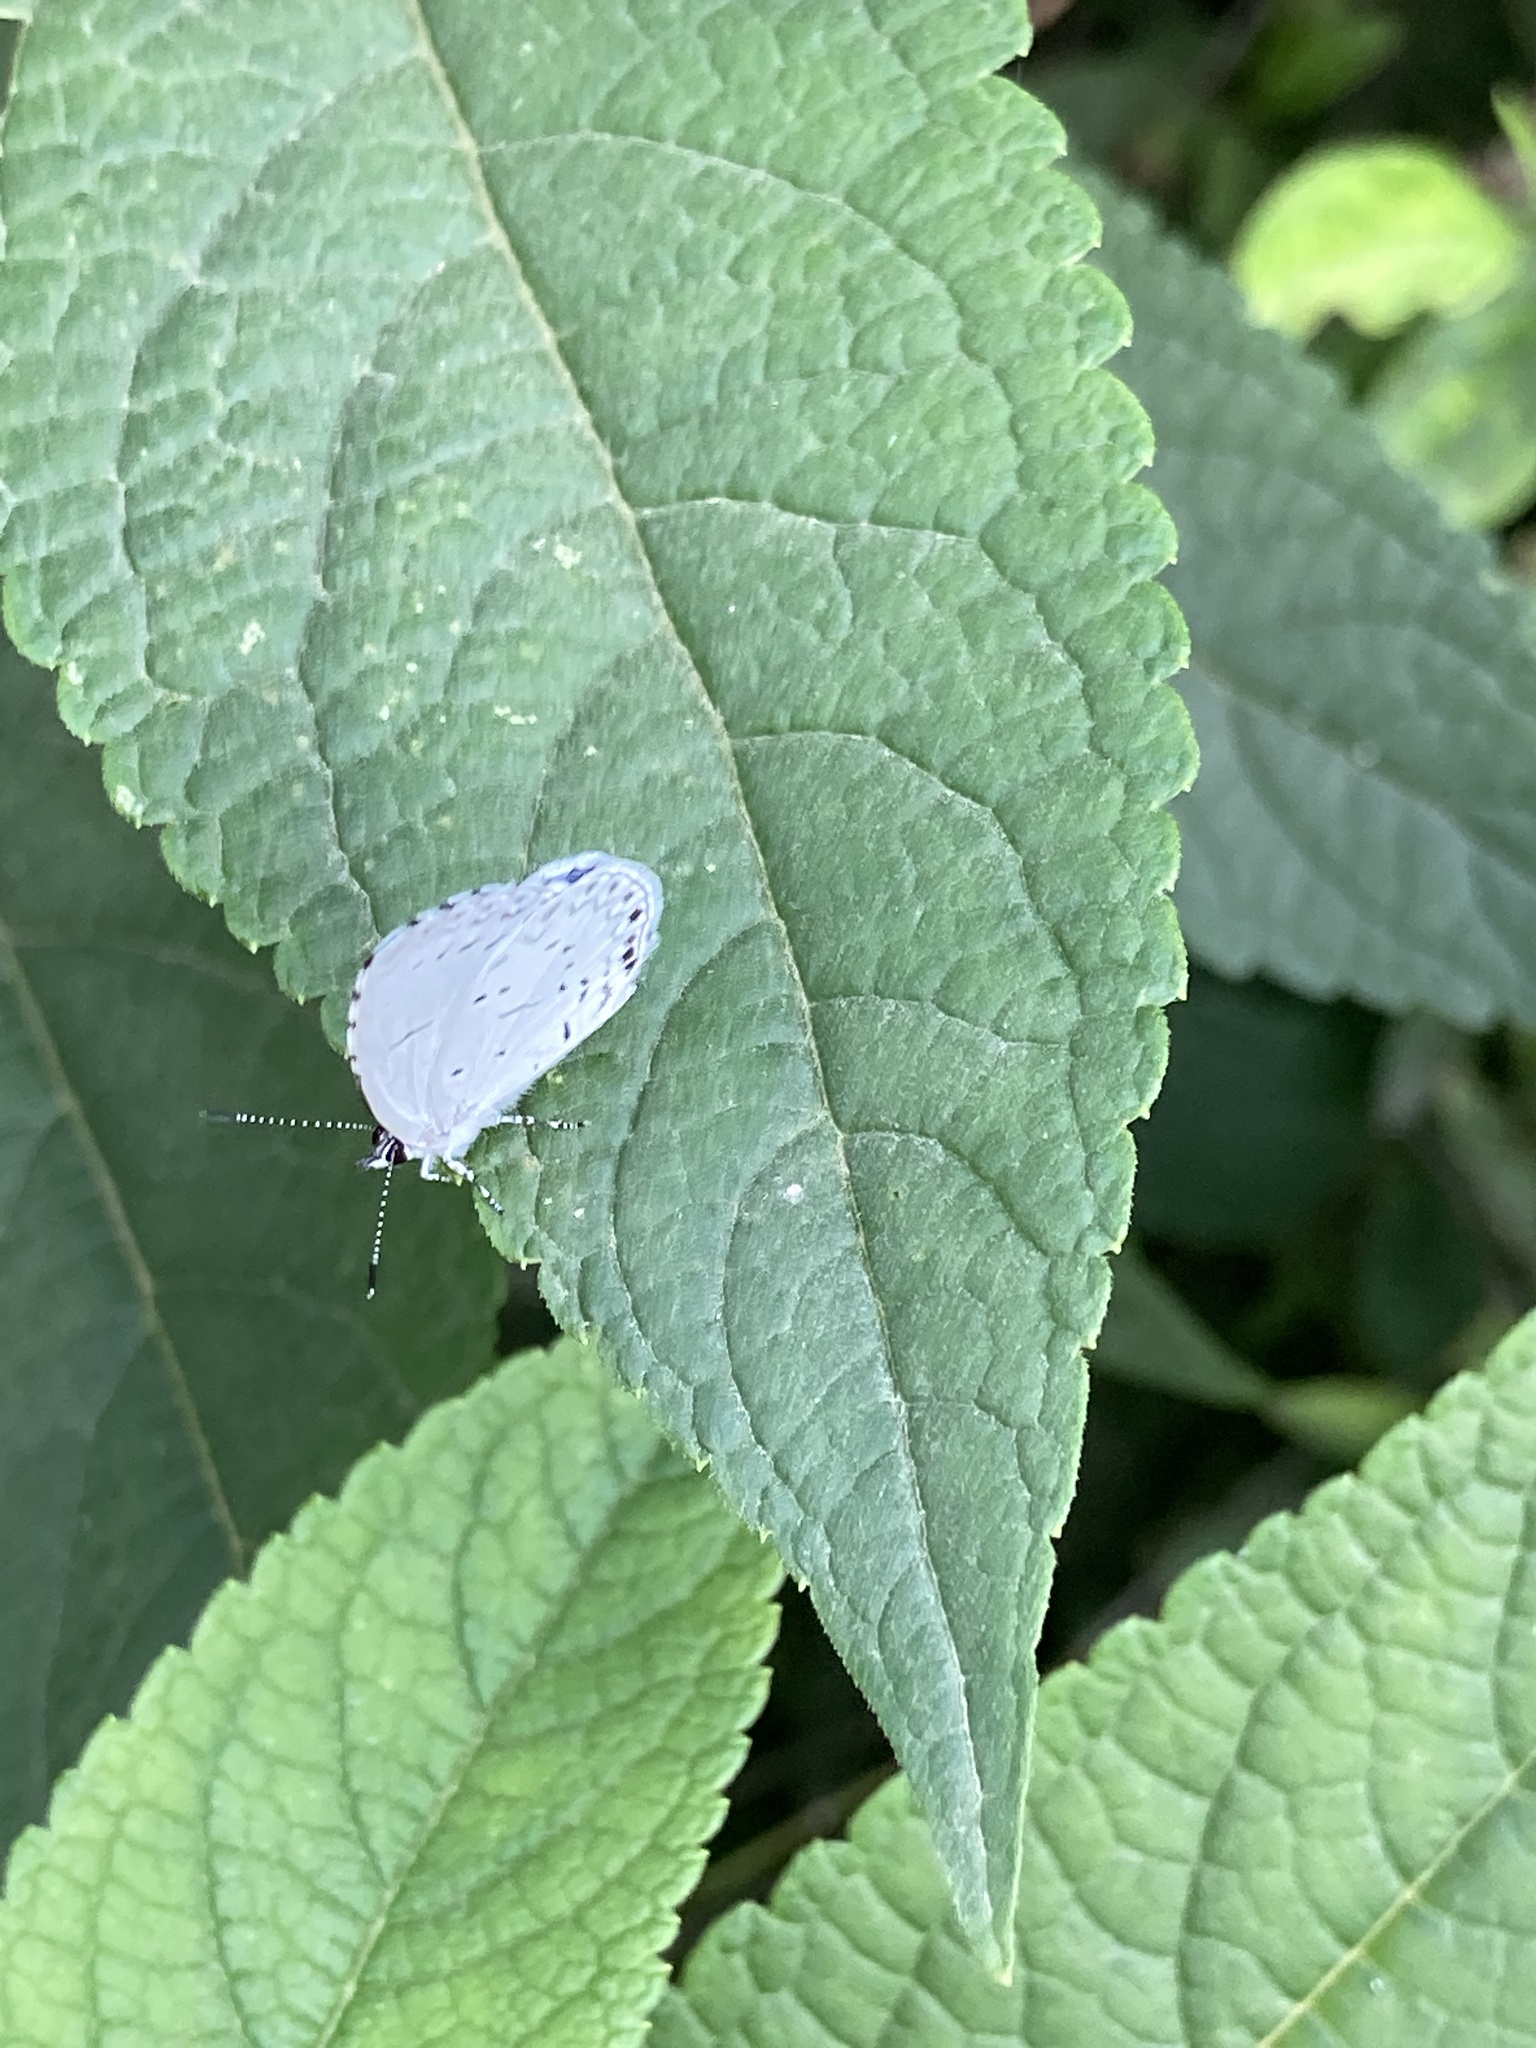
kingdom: Animalia
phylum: Arthropoda
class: Insecta
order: Lepidoptera
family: Lycaenidae
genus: Cyaniris
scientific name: Cyaniris neglecta
